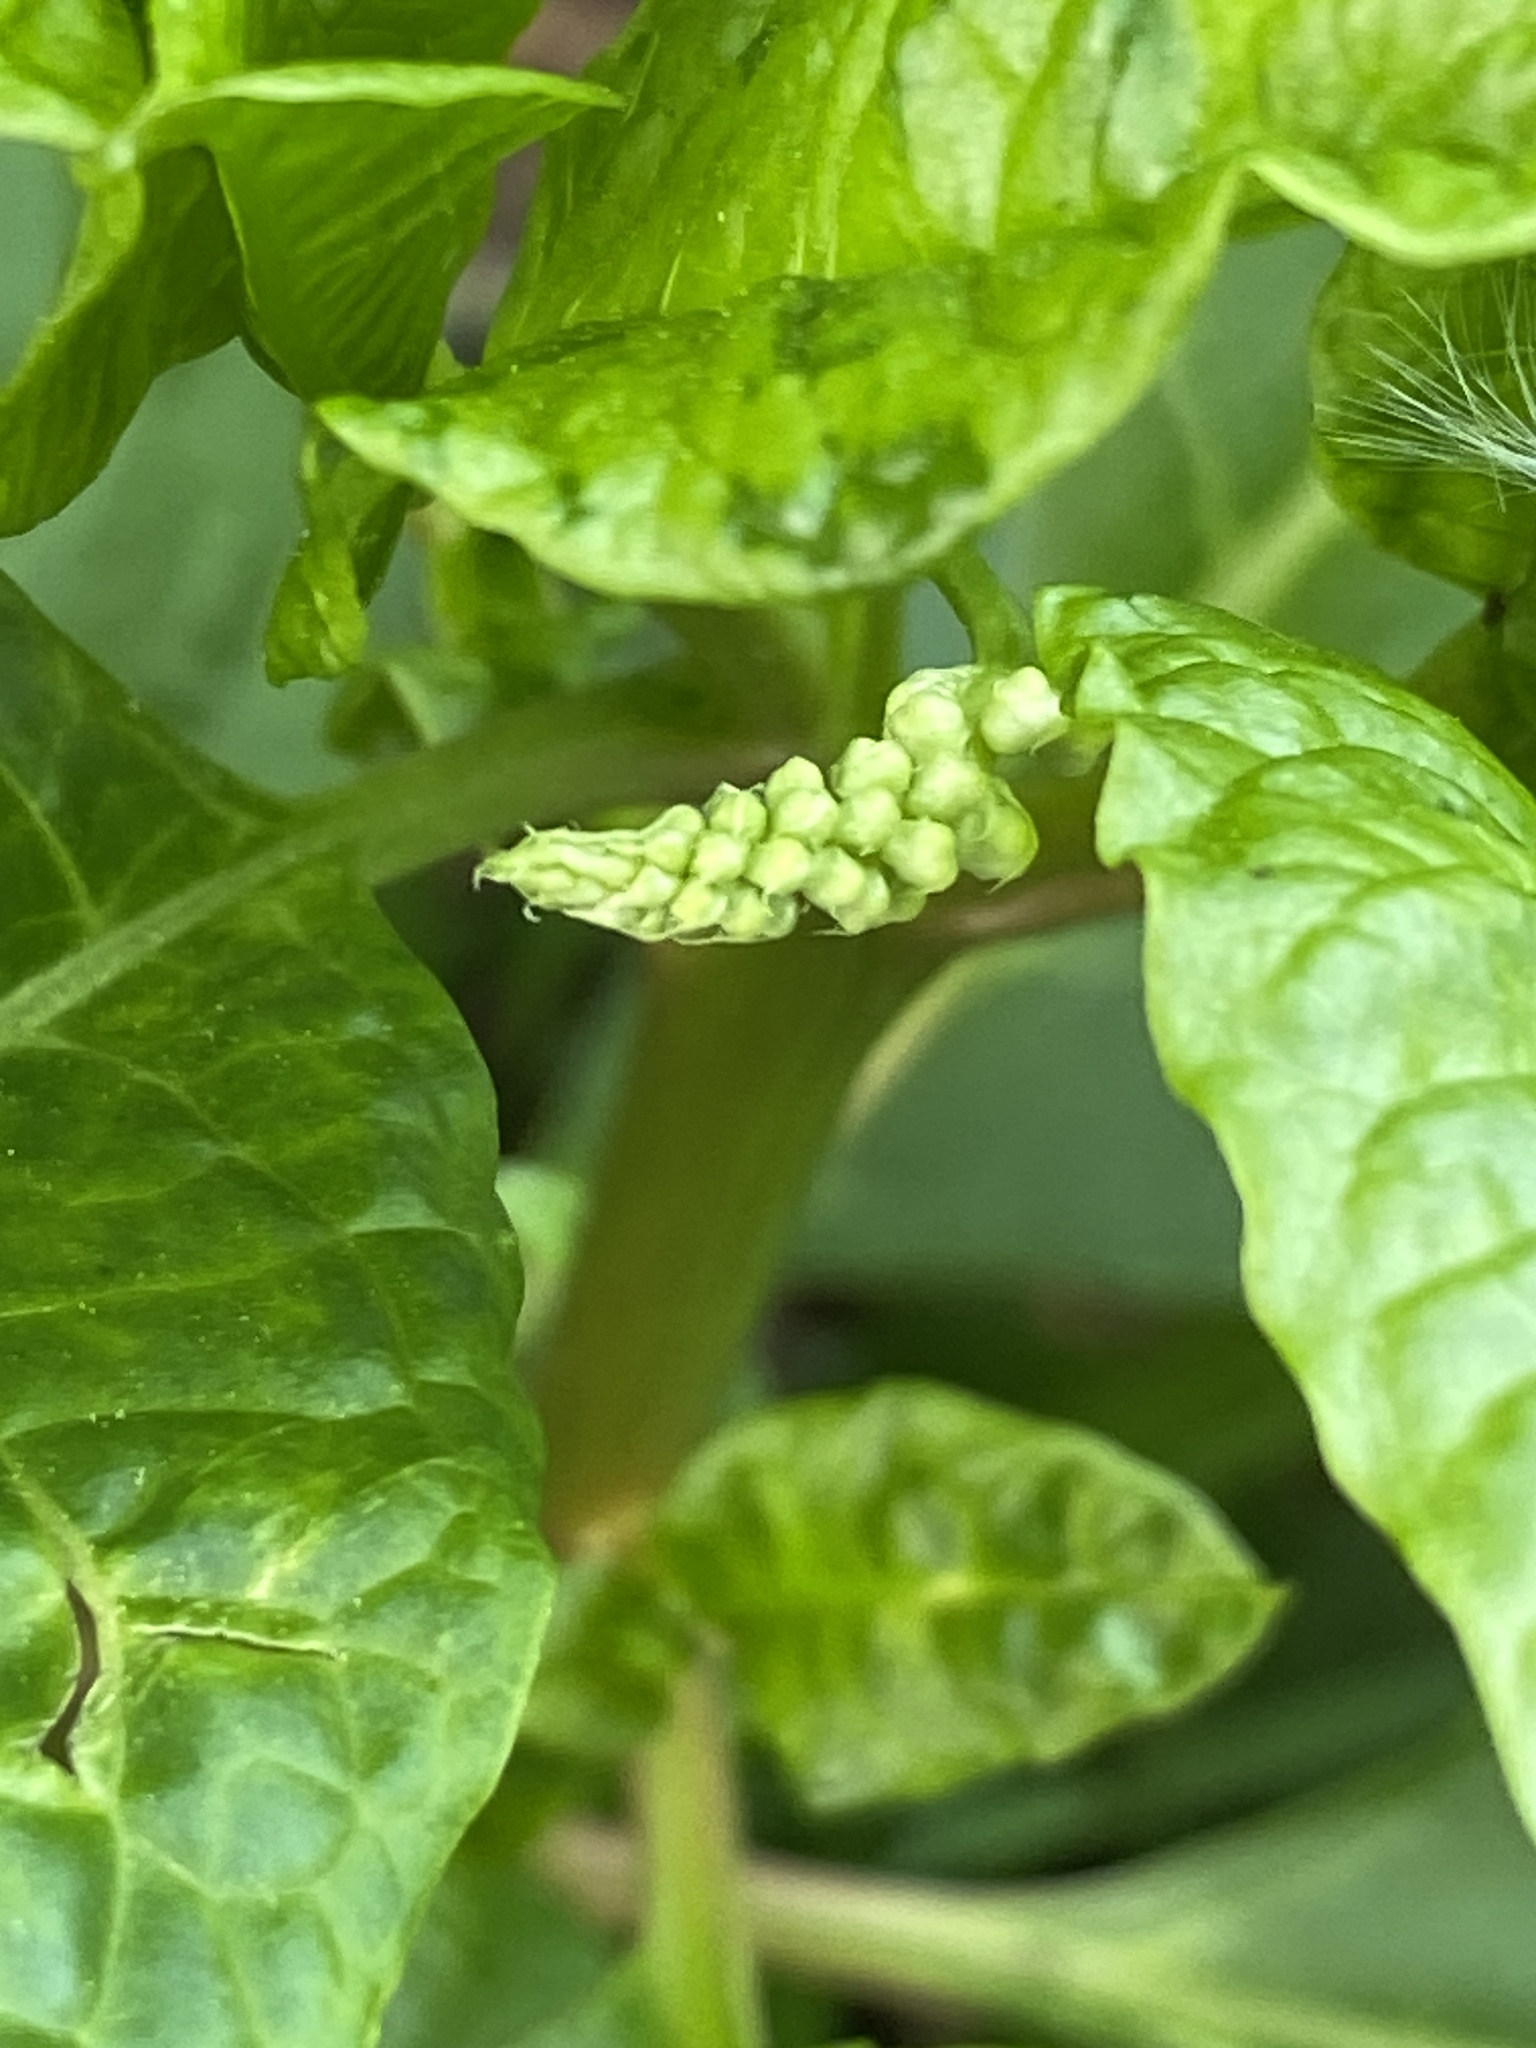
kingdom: Plantae
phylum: Tracheophyta
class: Magnoliopsida
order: Caryophyllales
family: Phytolaccaceae
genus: Phytolacca
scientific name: Phytolacca americana
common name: American pokeweed
